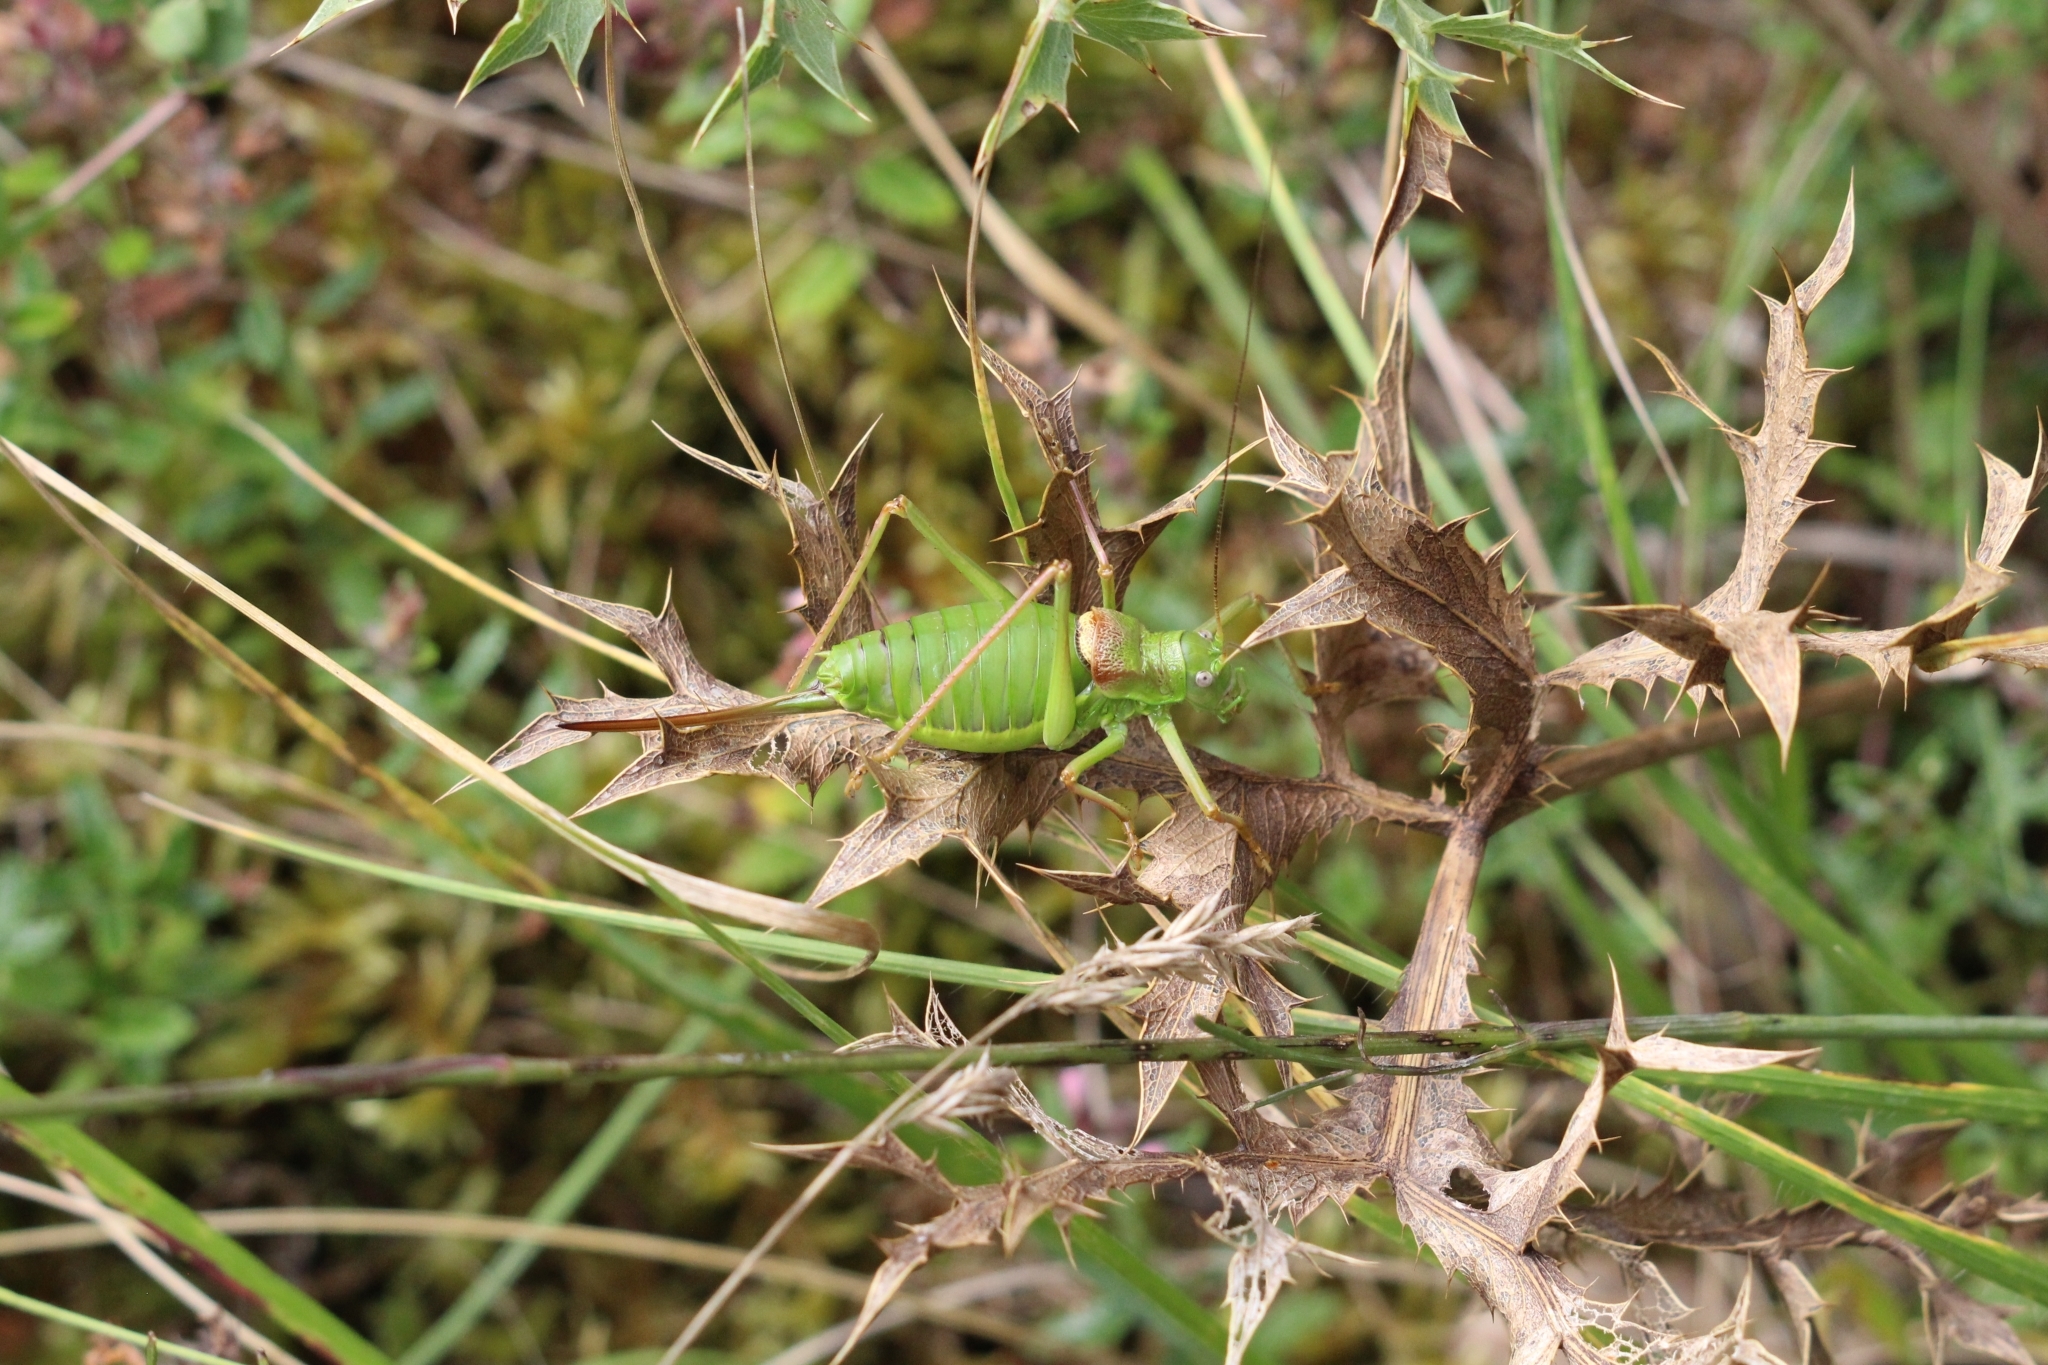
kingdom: Animalia
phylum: Arthropoda
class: Insecta
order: Orthoptera
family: Tettigoniidae
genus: Ephippiger
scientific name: Ephippiger diurnus
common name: Western saddle bush-cricket
